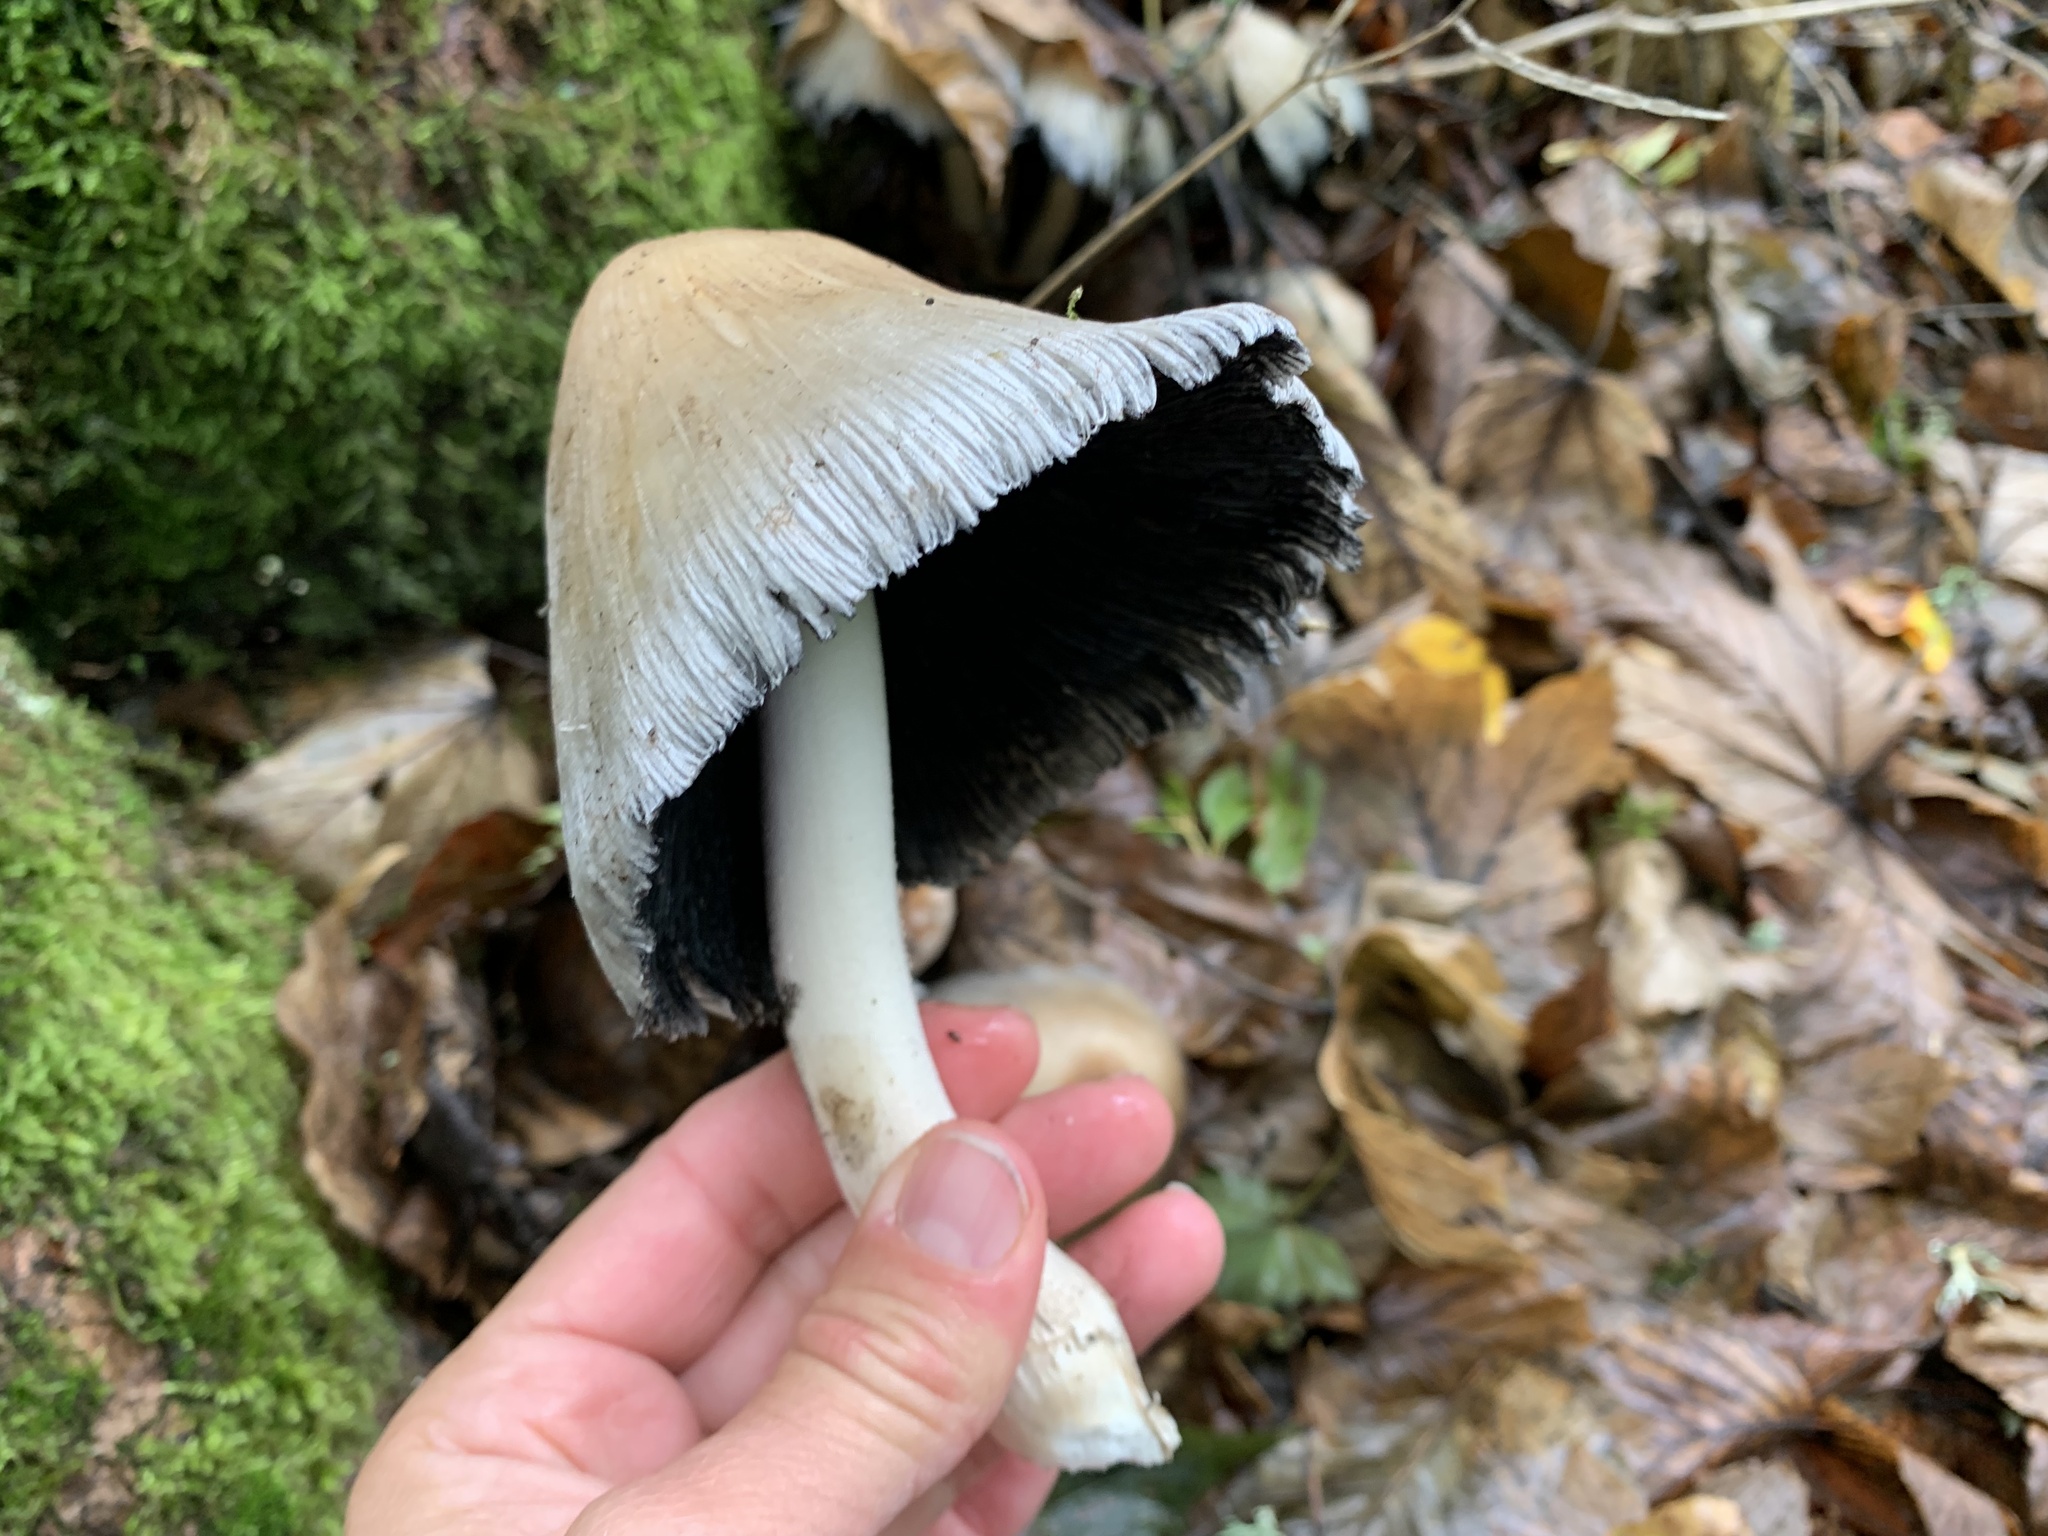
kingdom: Fungi
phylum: Basidiomycota
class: Agaricomycetes
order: Agaricales
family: Psathyrellaceae
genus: Coprinellus
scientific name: Coprinellus micaceus
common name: Glistening ink-cap
